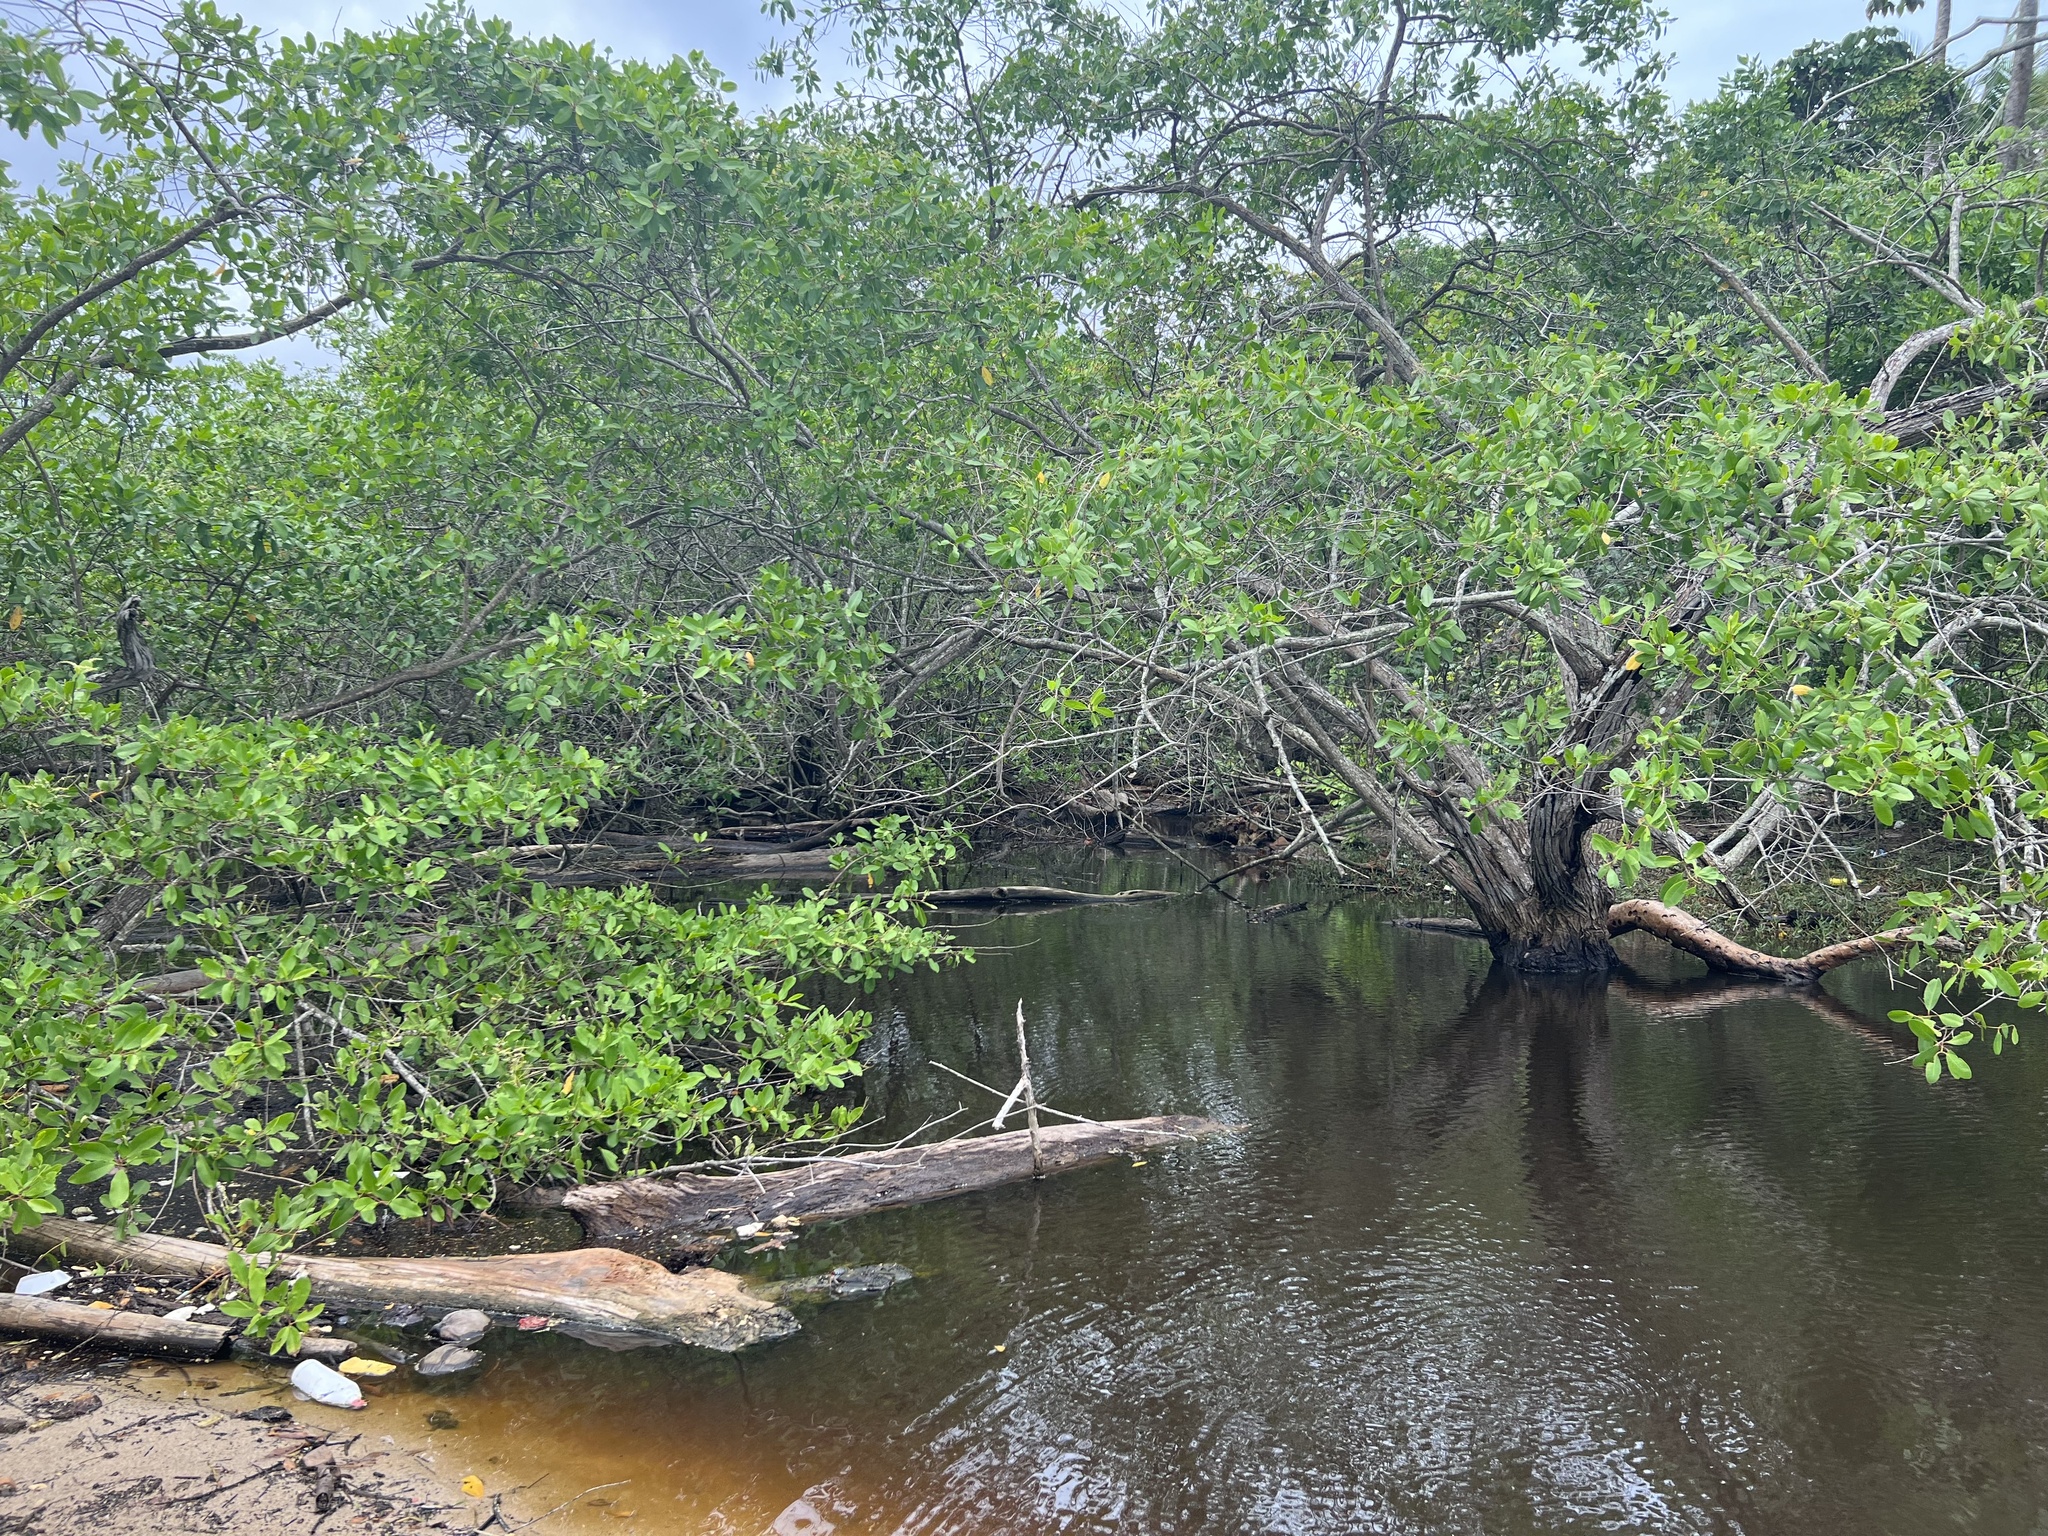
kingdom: Plantae
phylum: Tracheophyta
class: Magnoliopsida
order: Myrtales
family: Combretaceae
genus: Laguncularia
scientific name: Laguncularia racemosa
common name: White mangrove
